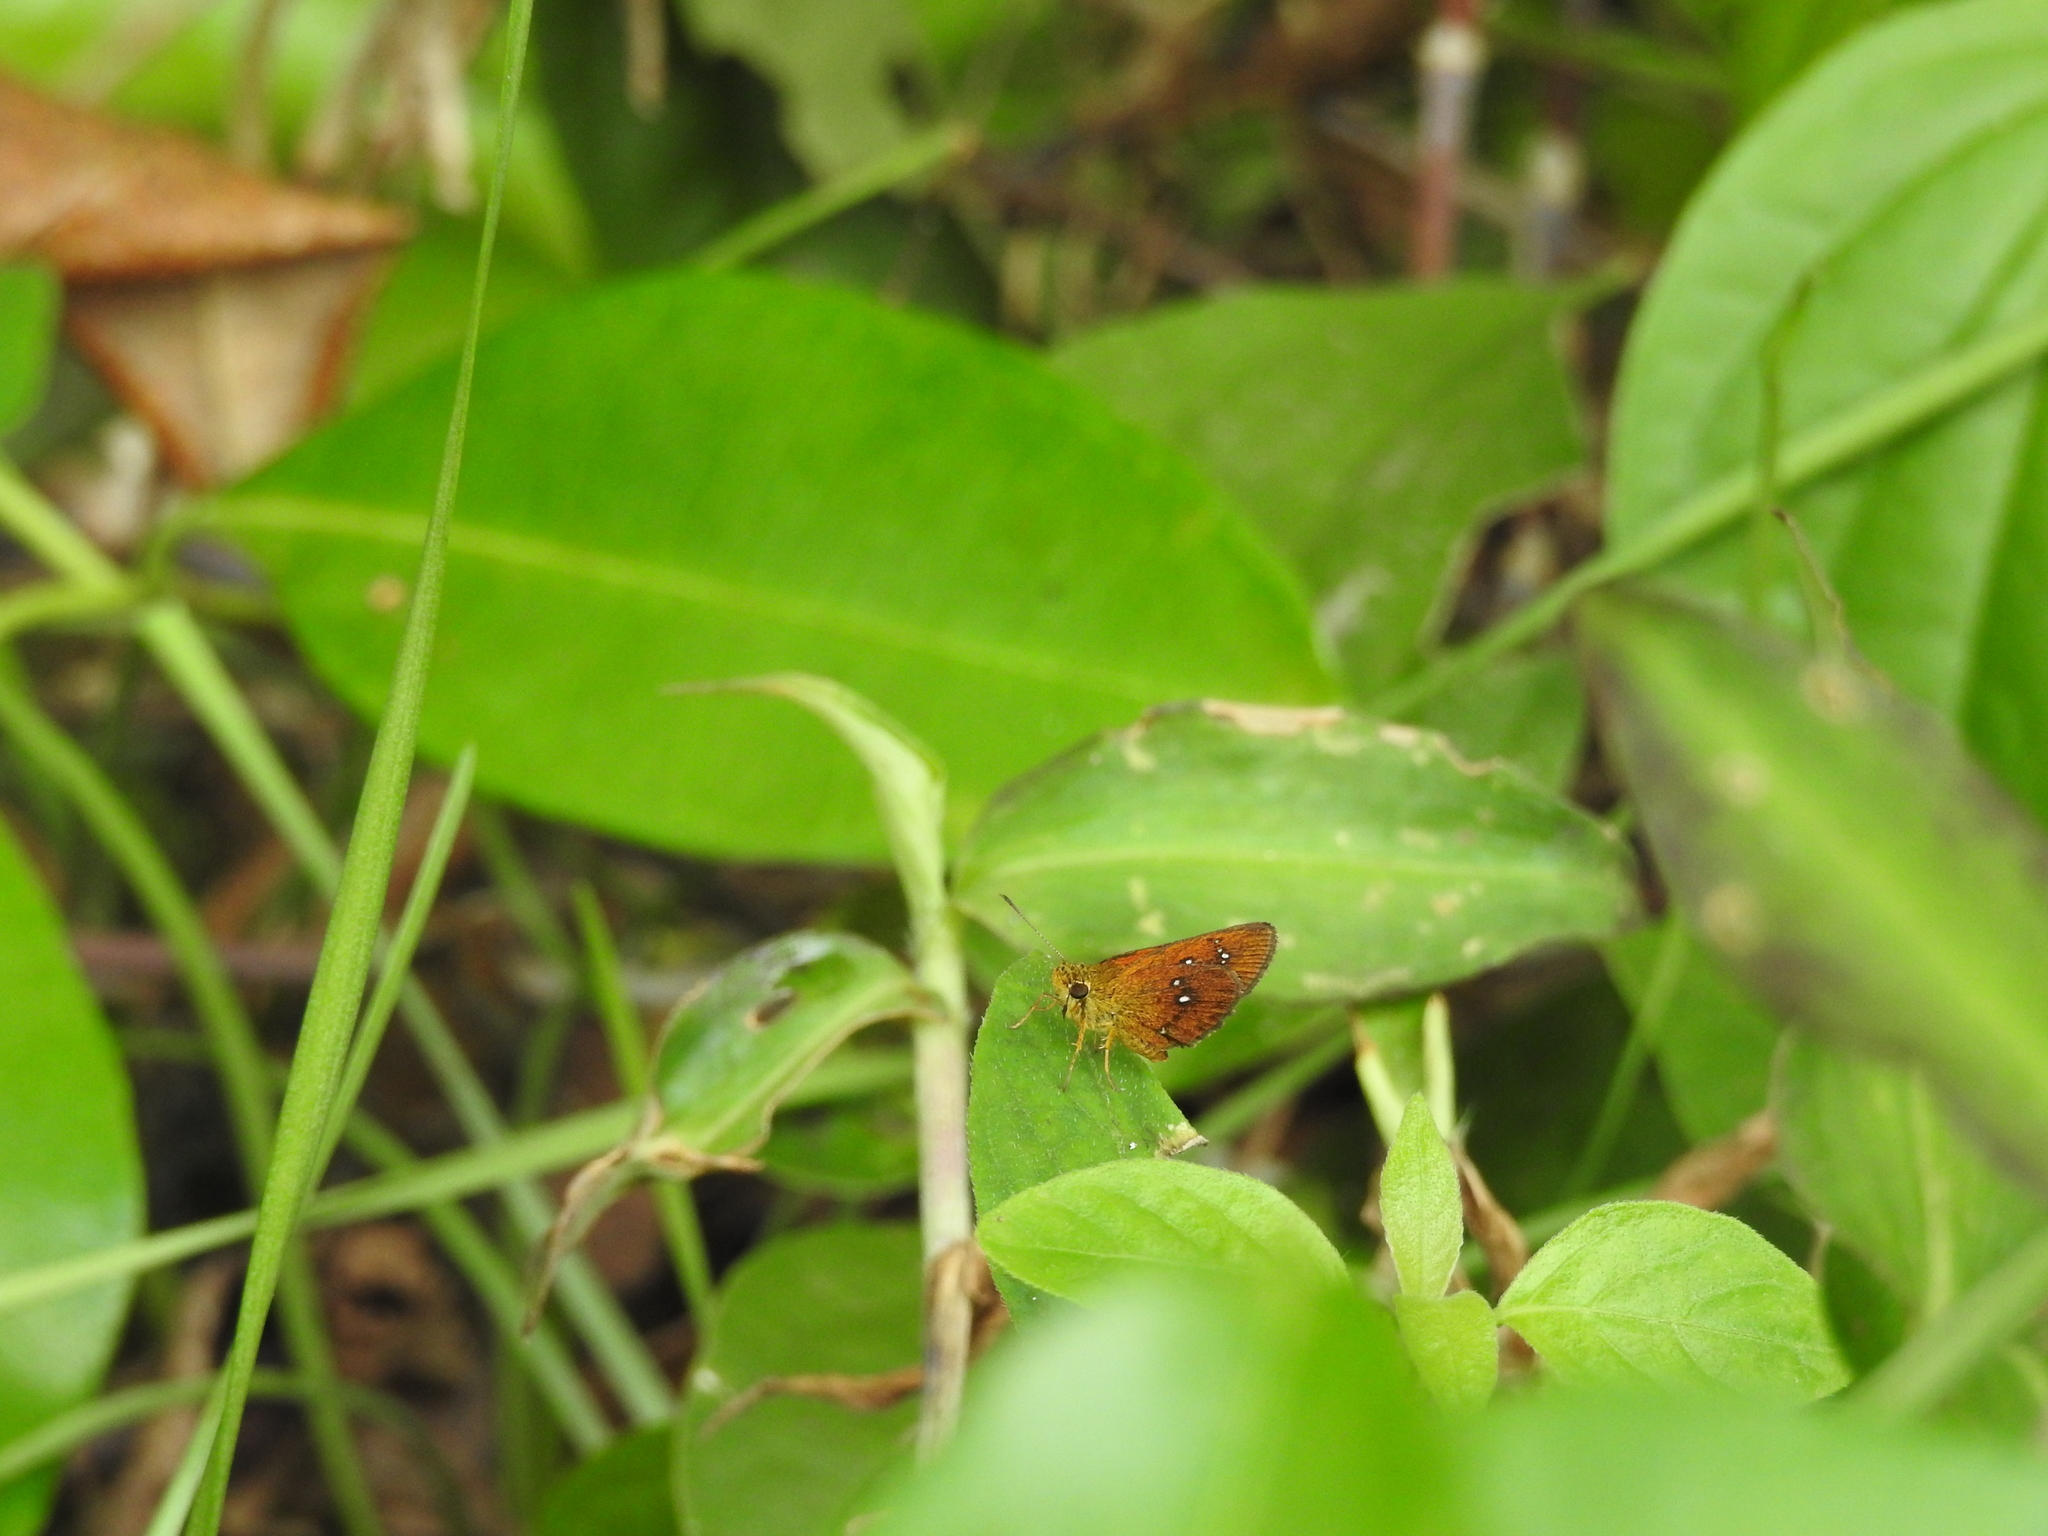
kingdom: Animalia
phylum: Arthropoda
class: Insecta
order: Lepidoptera
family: Hesperiidae
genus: Iambrix
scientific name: Iambrix salsala
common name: Chestnut bob
